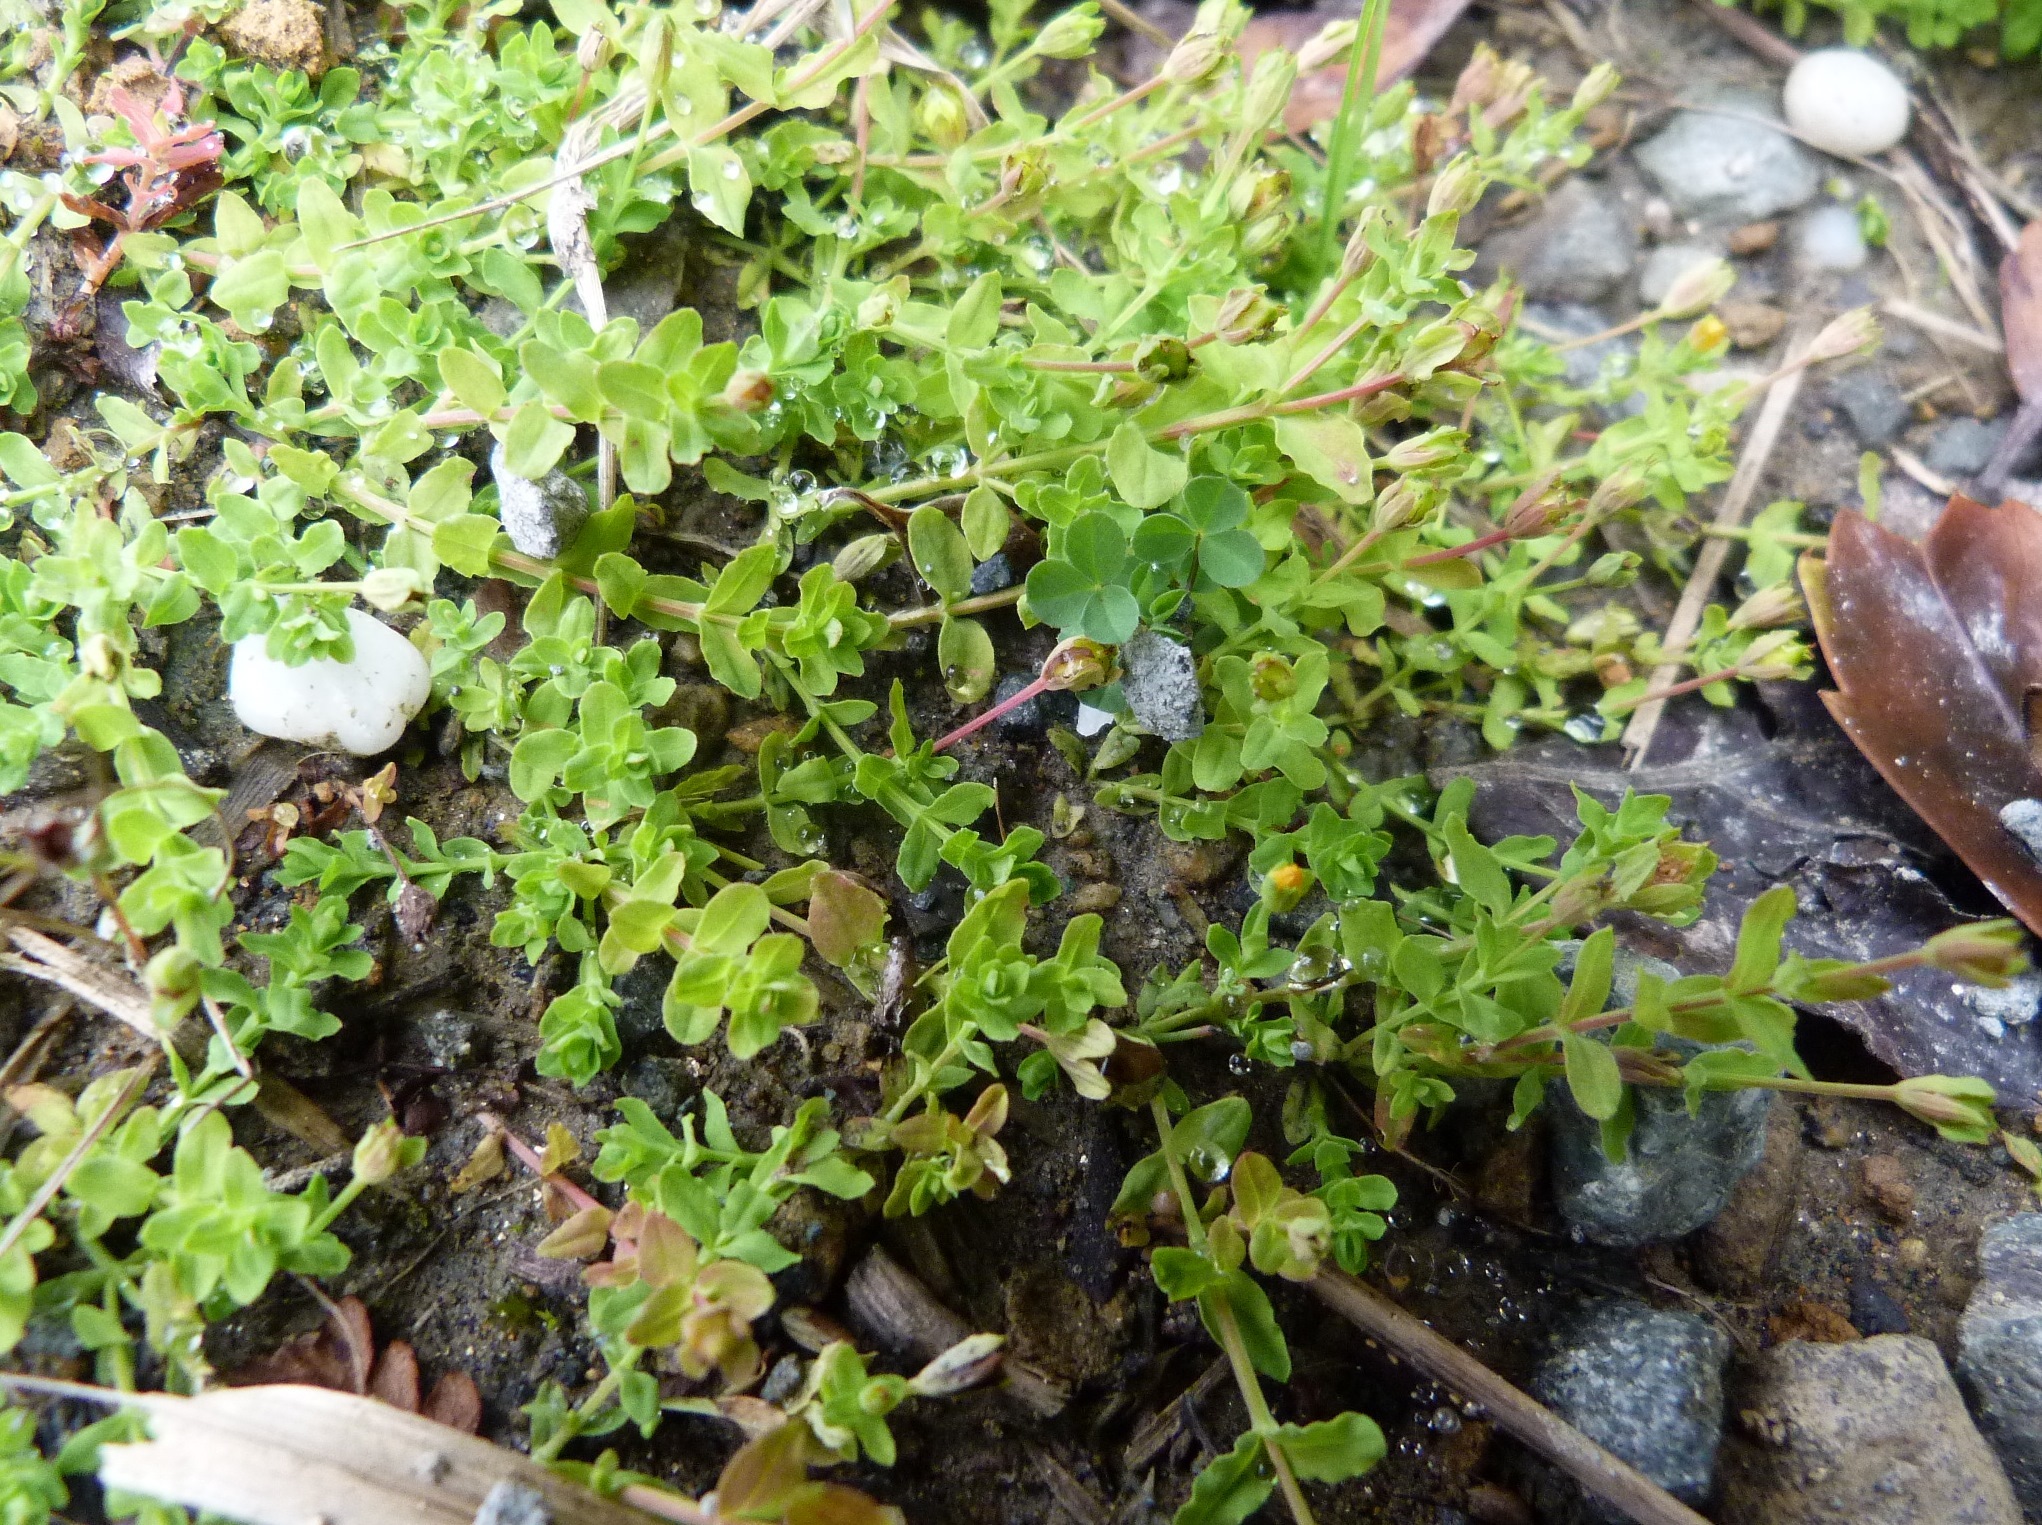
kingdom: Plantae
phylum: Tracheophyta
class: Magnoliopsida
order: Malpighiales
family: Hypericaceae
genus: Hypericum
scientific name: Hypericum japonicum
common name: Matted st. john's-wort
